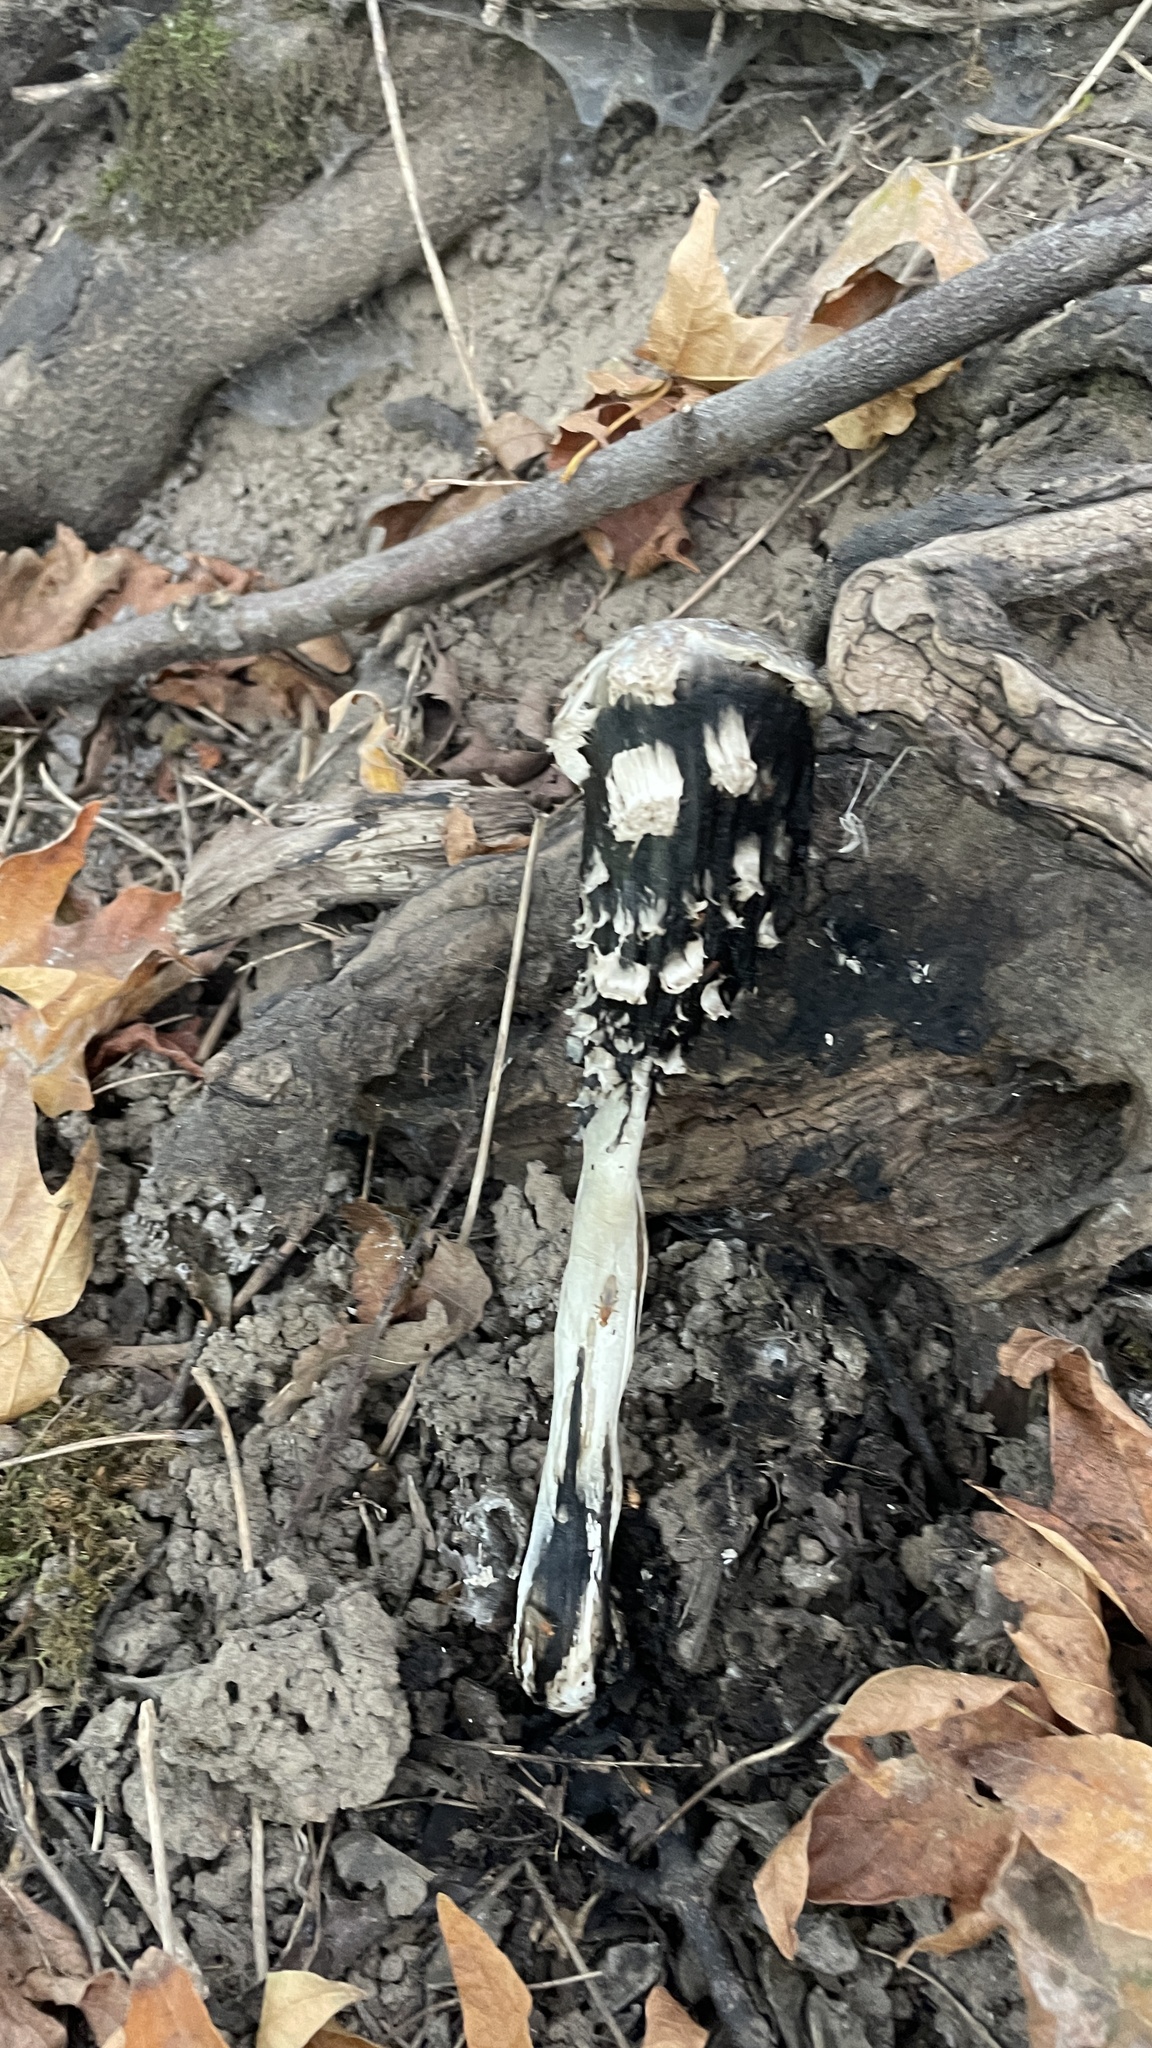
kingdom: Fungi
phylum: Basidiomycota
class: Agaricomycetes
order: Agaricales
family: Agaricaceae
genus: Coprinus
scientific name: Coprinus comatus
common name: Lawyer's wig
